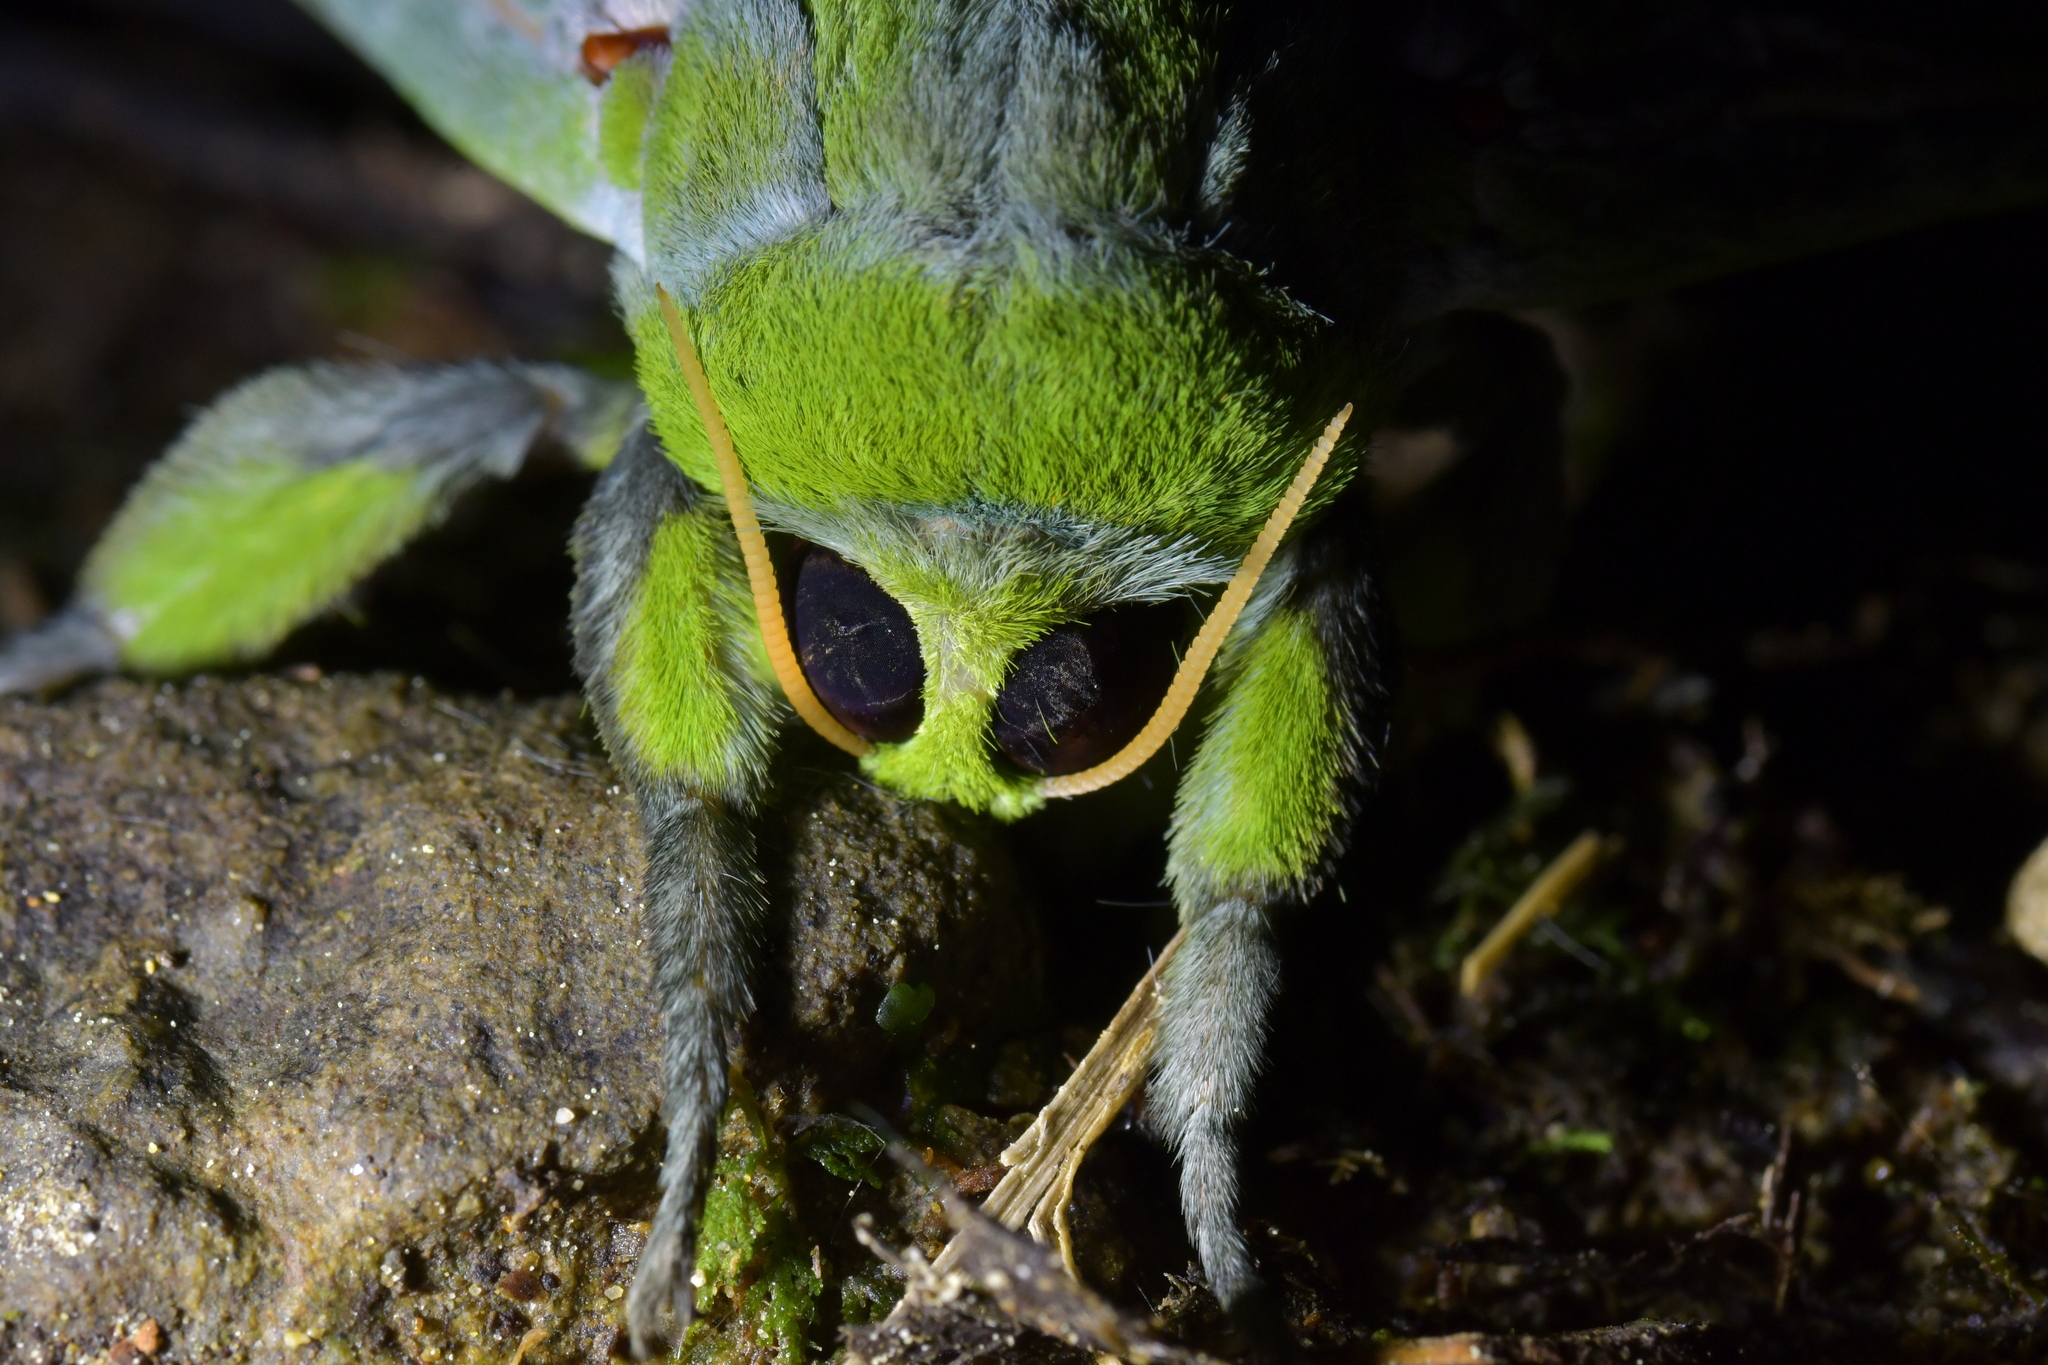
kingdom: Animalia
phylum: Arthropoda
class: Insecta
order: Lepidoptera
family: Hepialidae
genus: Aenetus
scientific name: Aenetus virescens
